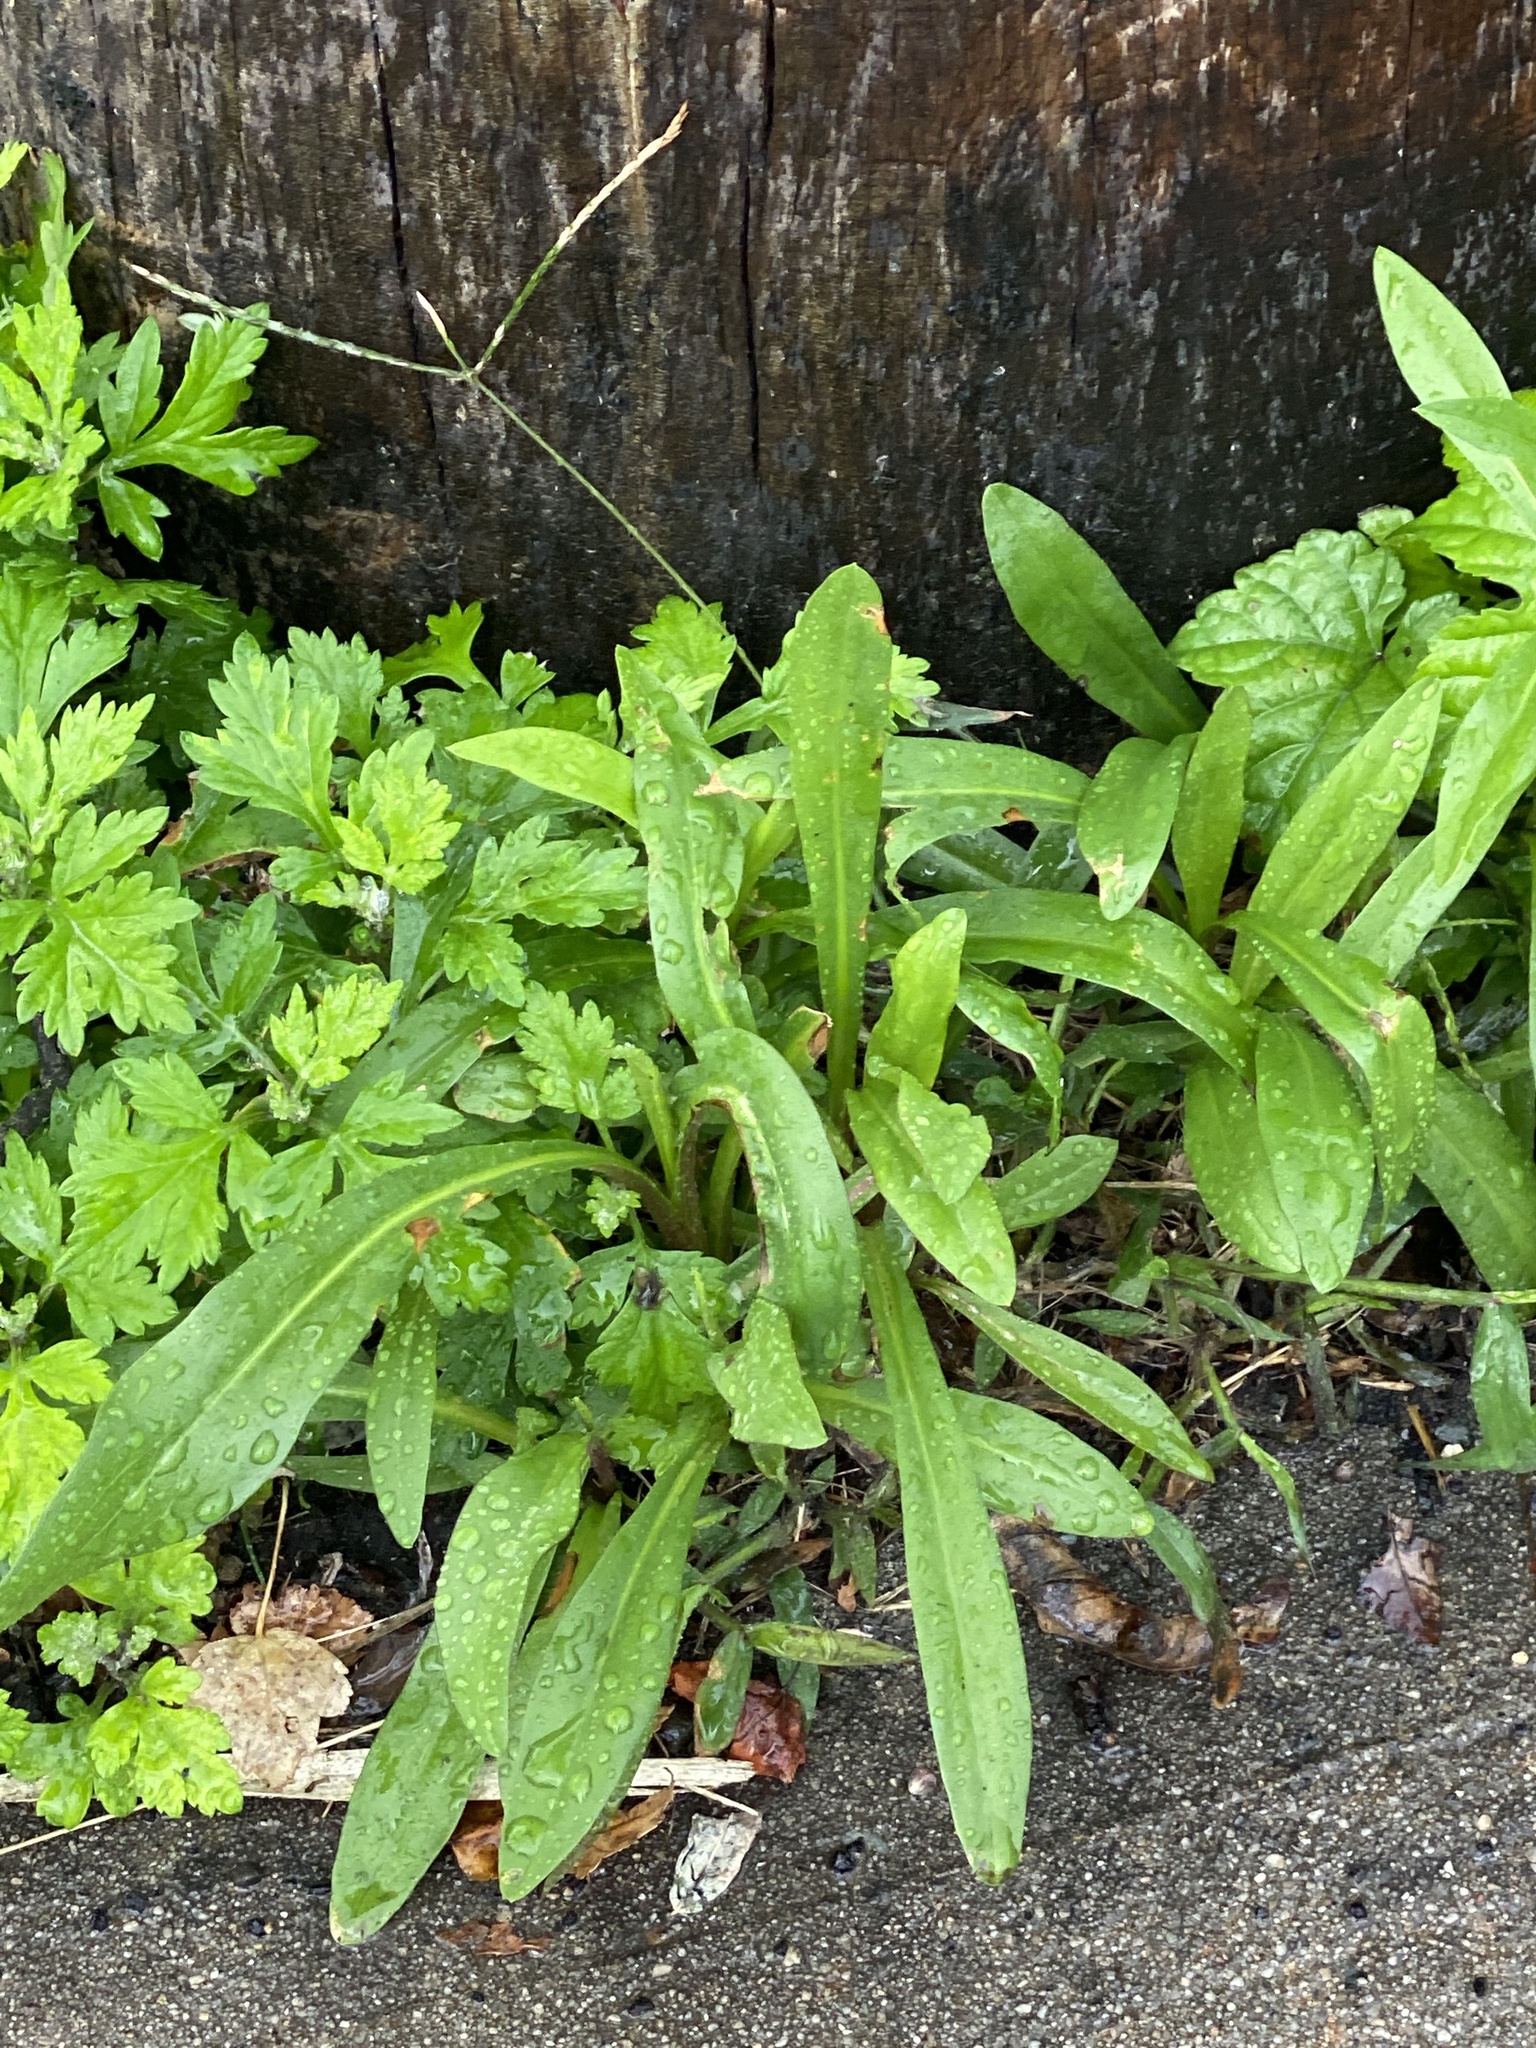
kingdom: Plantae
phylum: Tracheophyta
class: Magnoliopsida
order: Asterales
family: Asteraceae
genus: Solidago
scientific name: Solidago sempervirens
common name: Salt-marsh goldenrod
